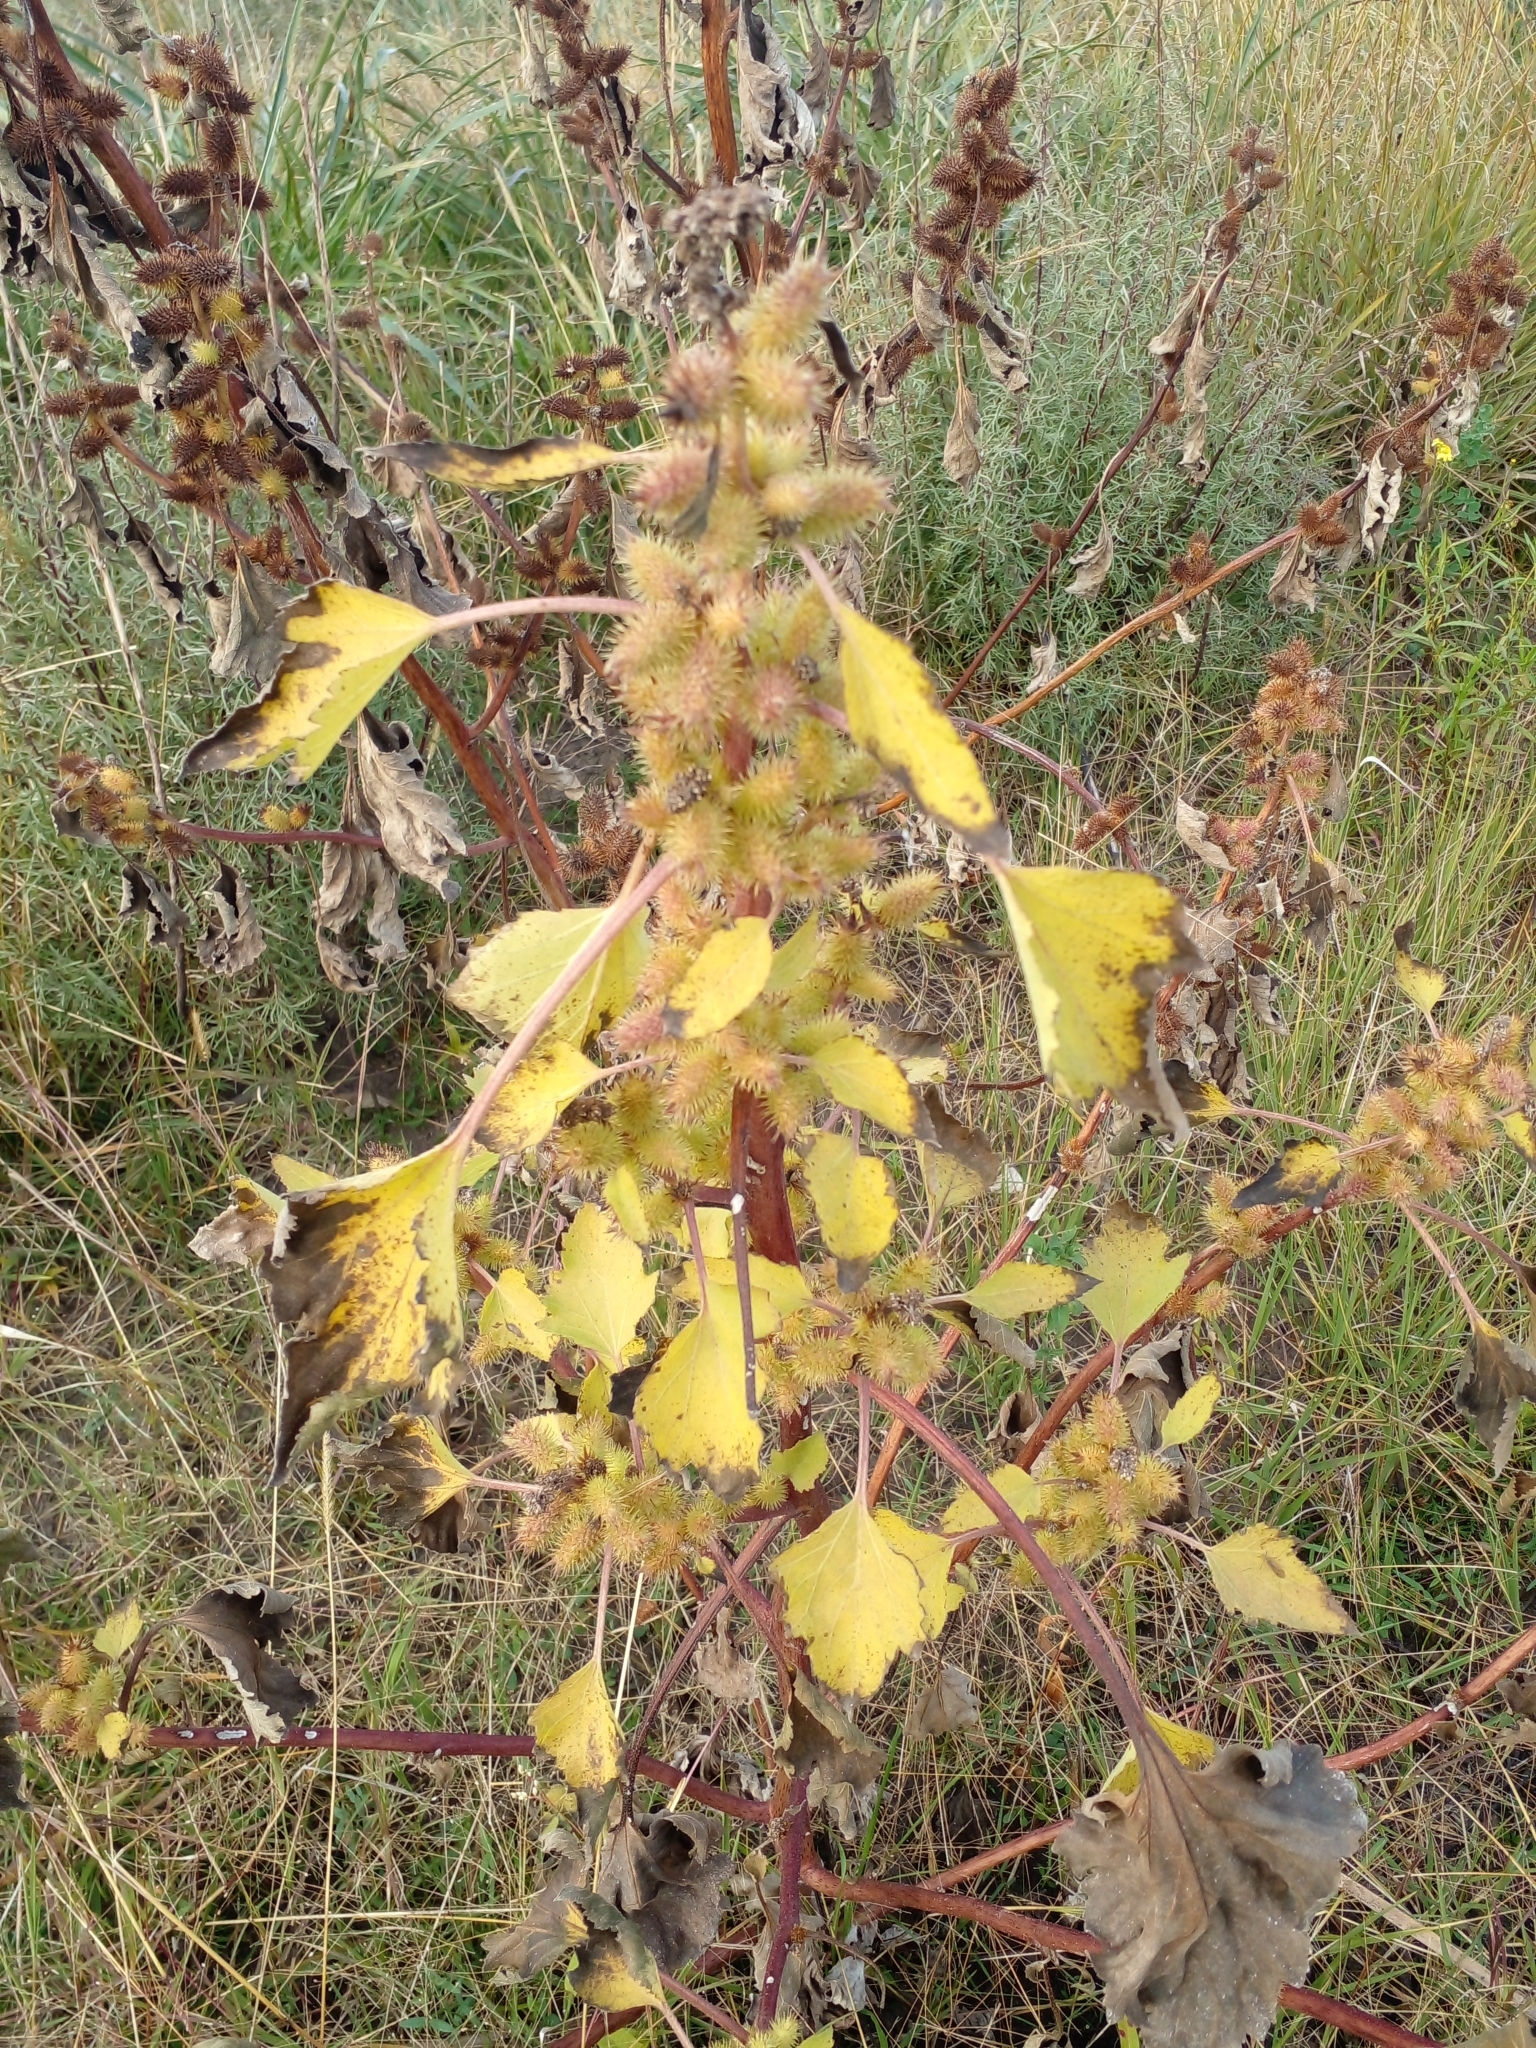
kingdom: Plantae
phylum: Tracheophyta
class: Magnoliopsida
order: Asterales
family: Asteraceae
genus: Xanthium
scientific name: Xanthium strumarium
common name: Rough cocklebur
